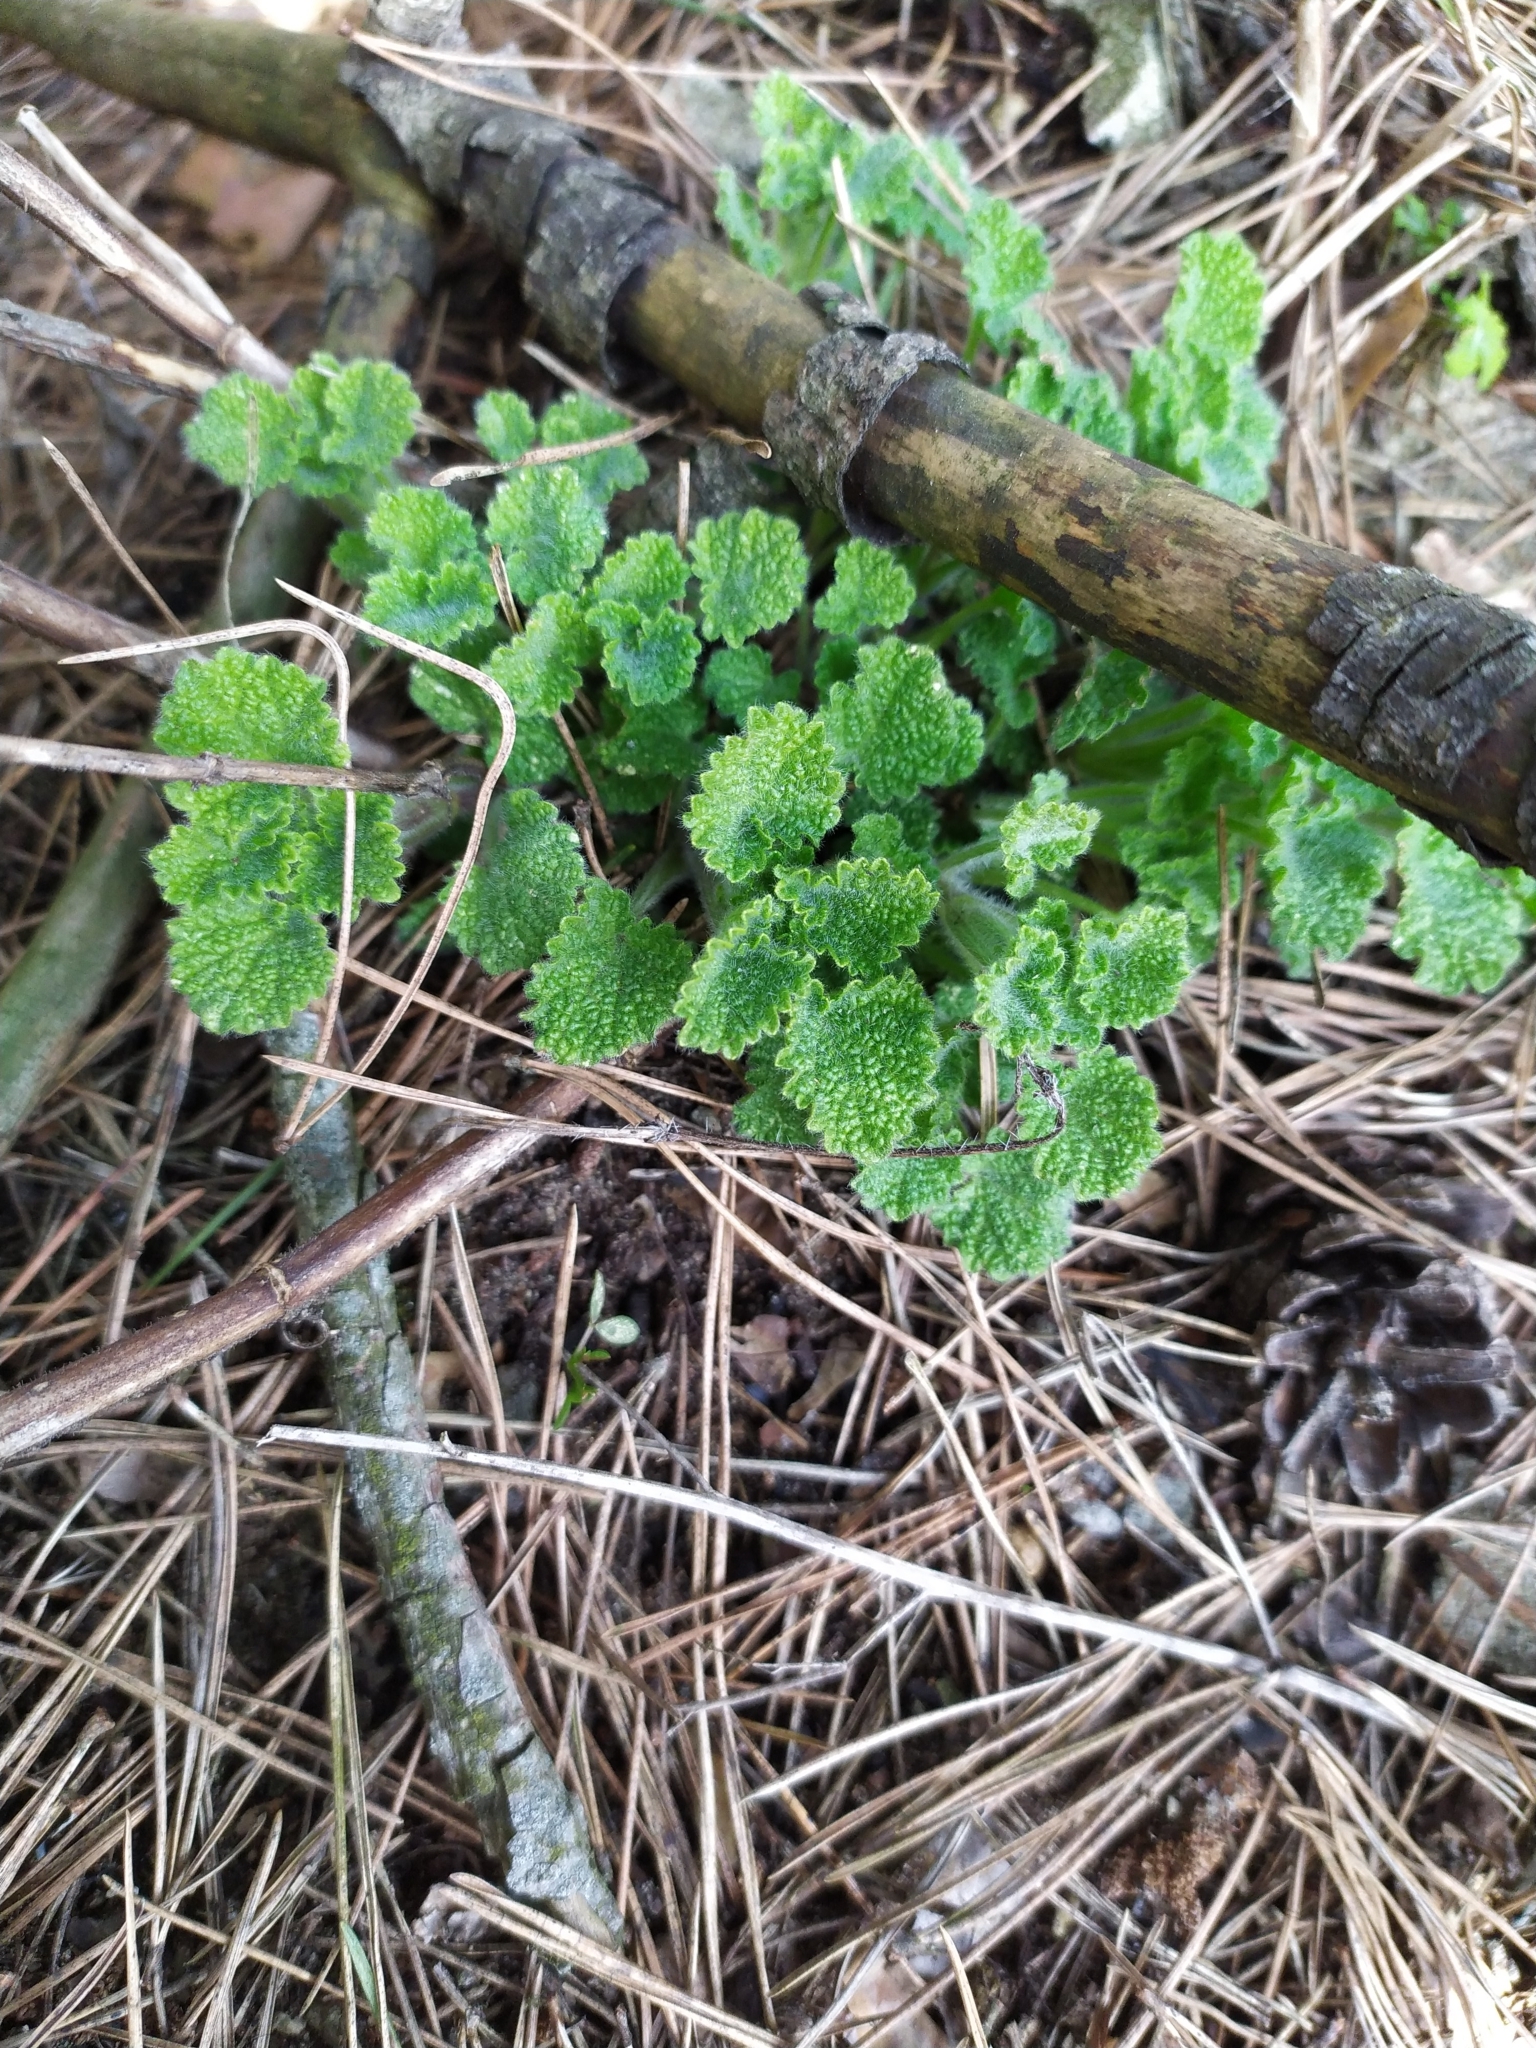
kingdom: Plantae
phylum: Tracheophyta
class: Magnoliopsida
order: Lamiales
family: Lamiaceae
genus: Ballota
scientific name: Ballota nigra
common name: Black horehound
